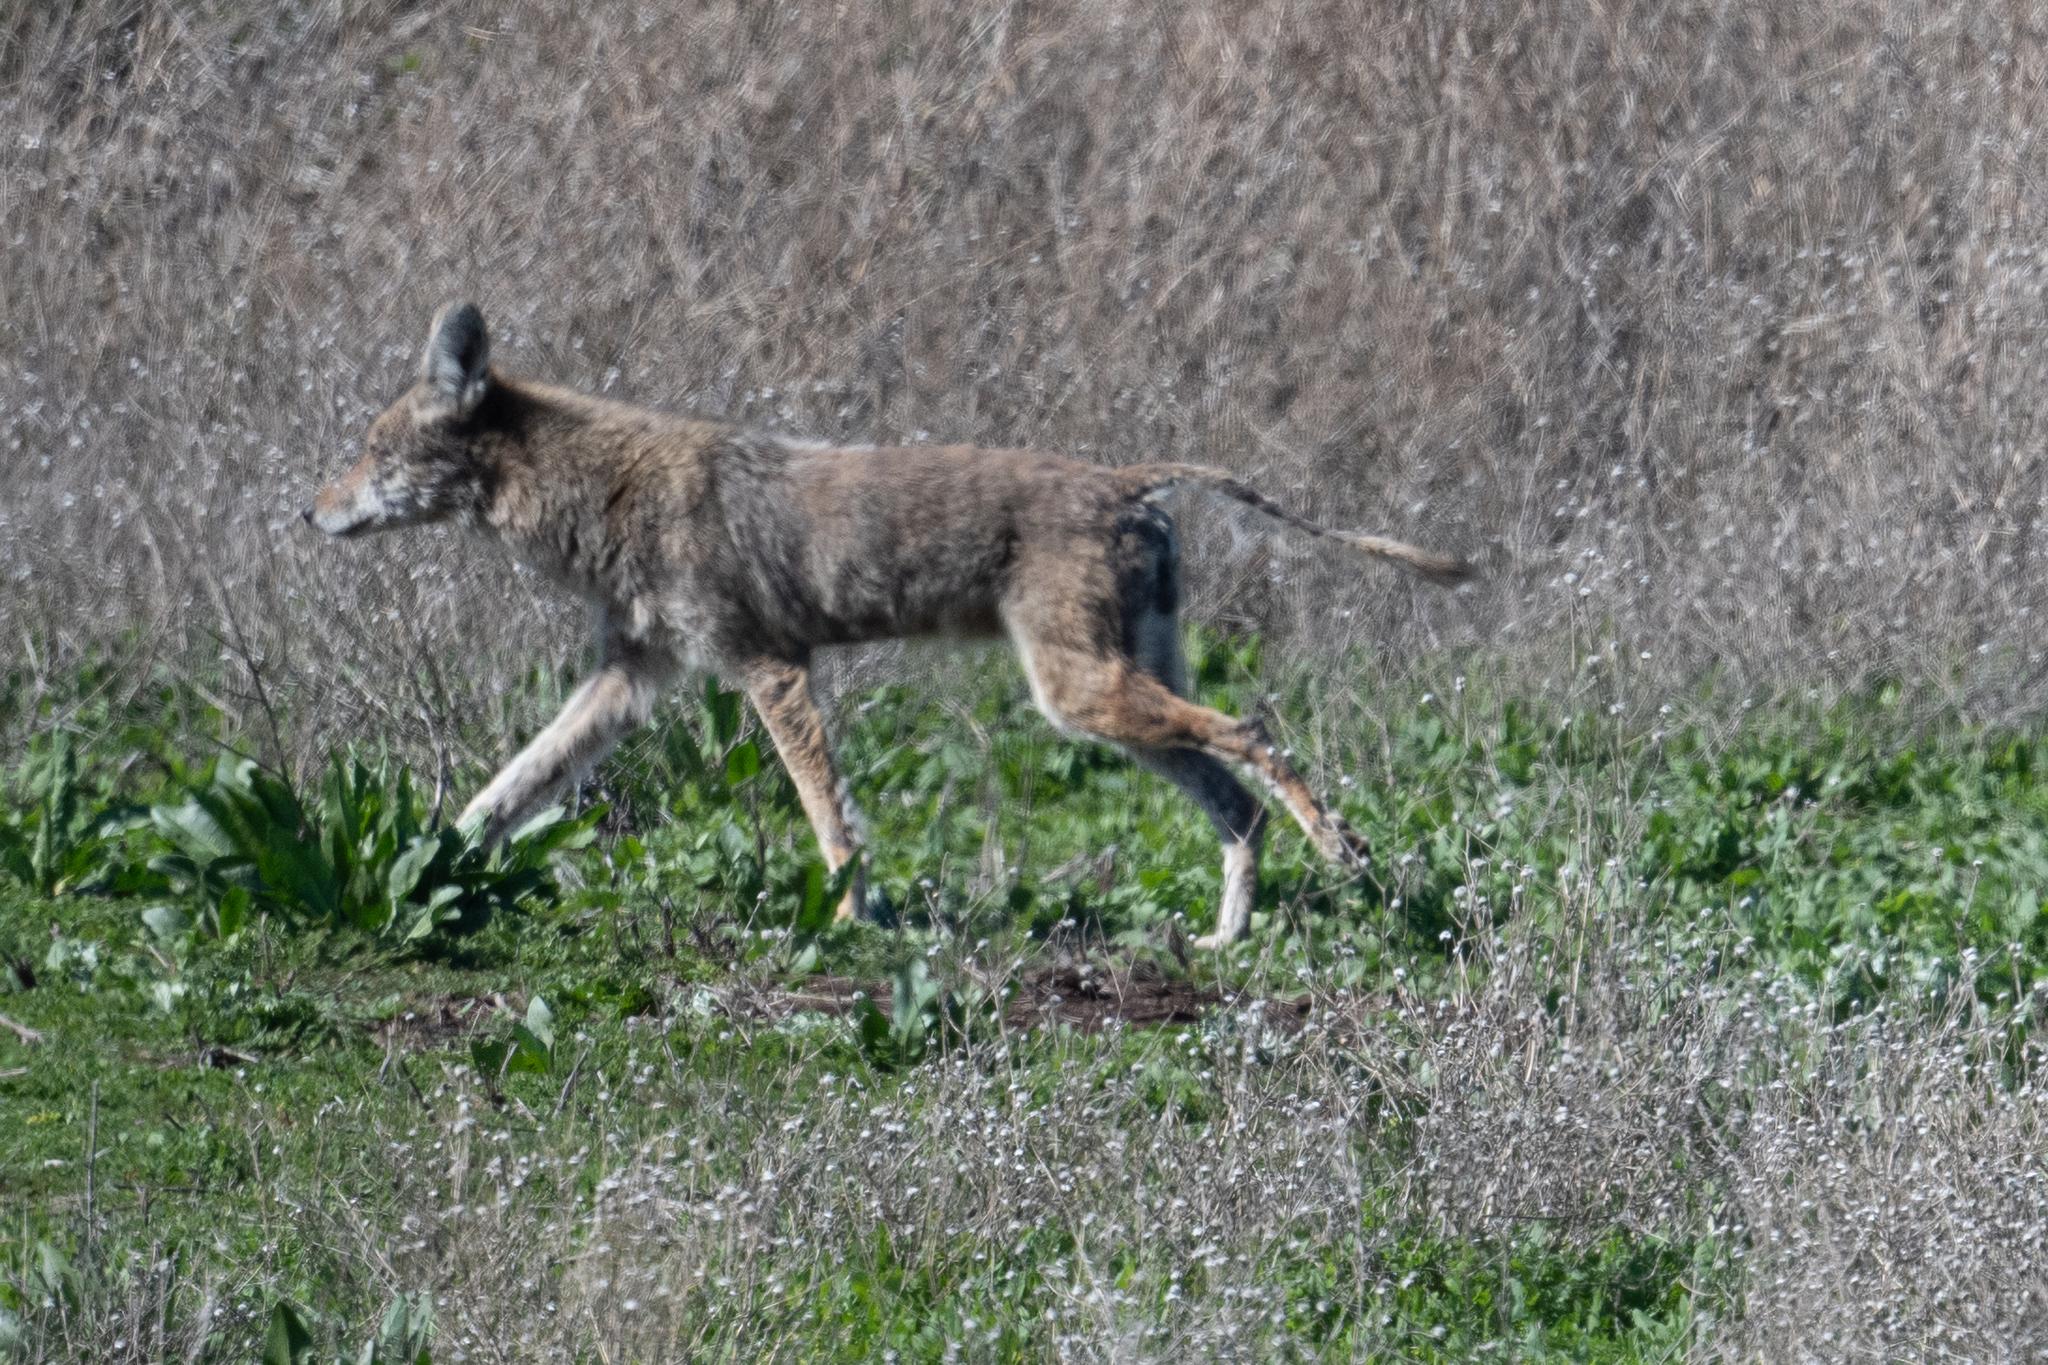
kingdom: Animalia
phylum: Chordata
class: Mammalia
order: Carnivora
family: Canidae
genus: Canis
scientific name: Canis latrans
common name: Coyote
